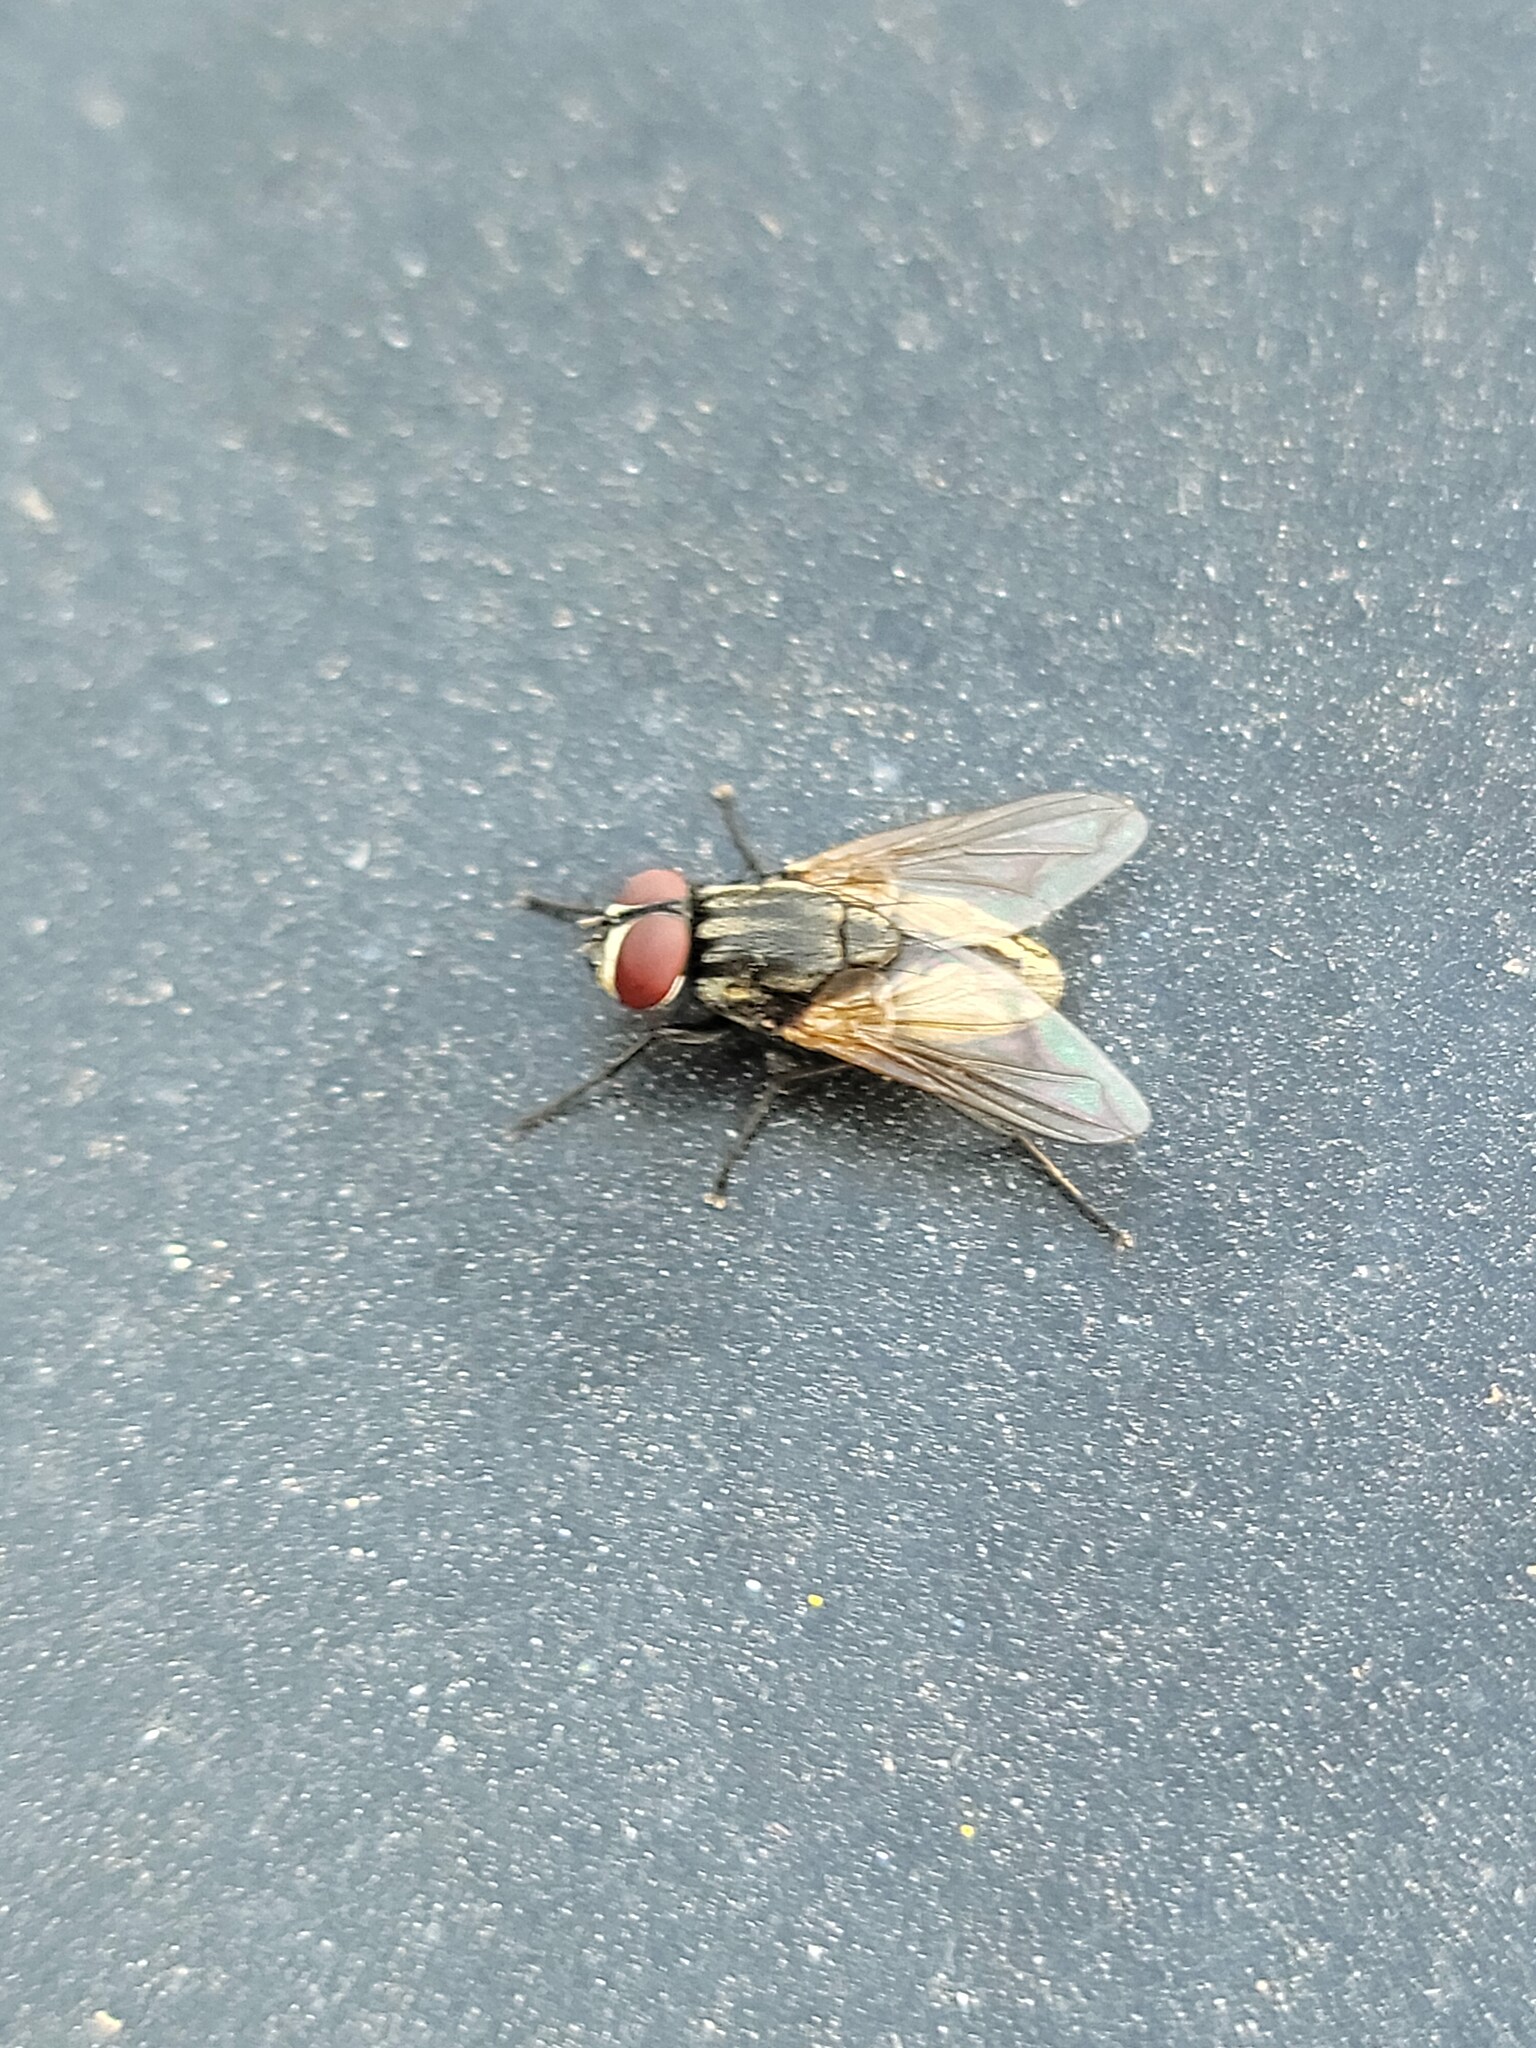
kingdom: Animalia
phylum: Arthropoda
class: Insecta
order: Diptera
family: Muscidae
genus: Musca
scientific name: Musca domestica
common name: House fly
